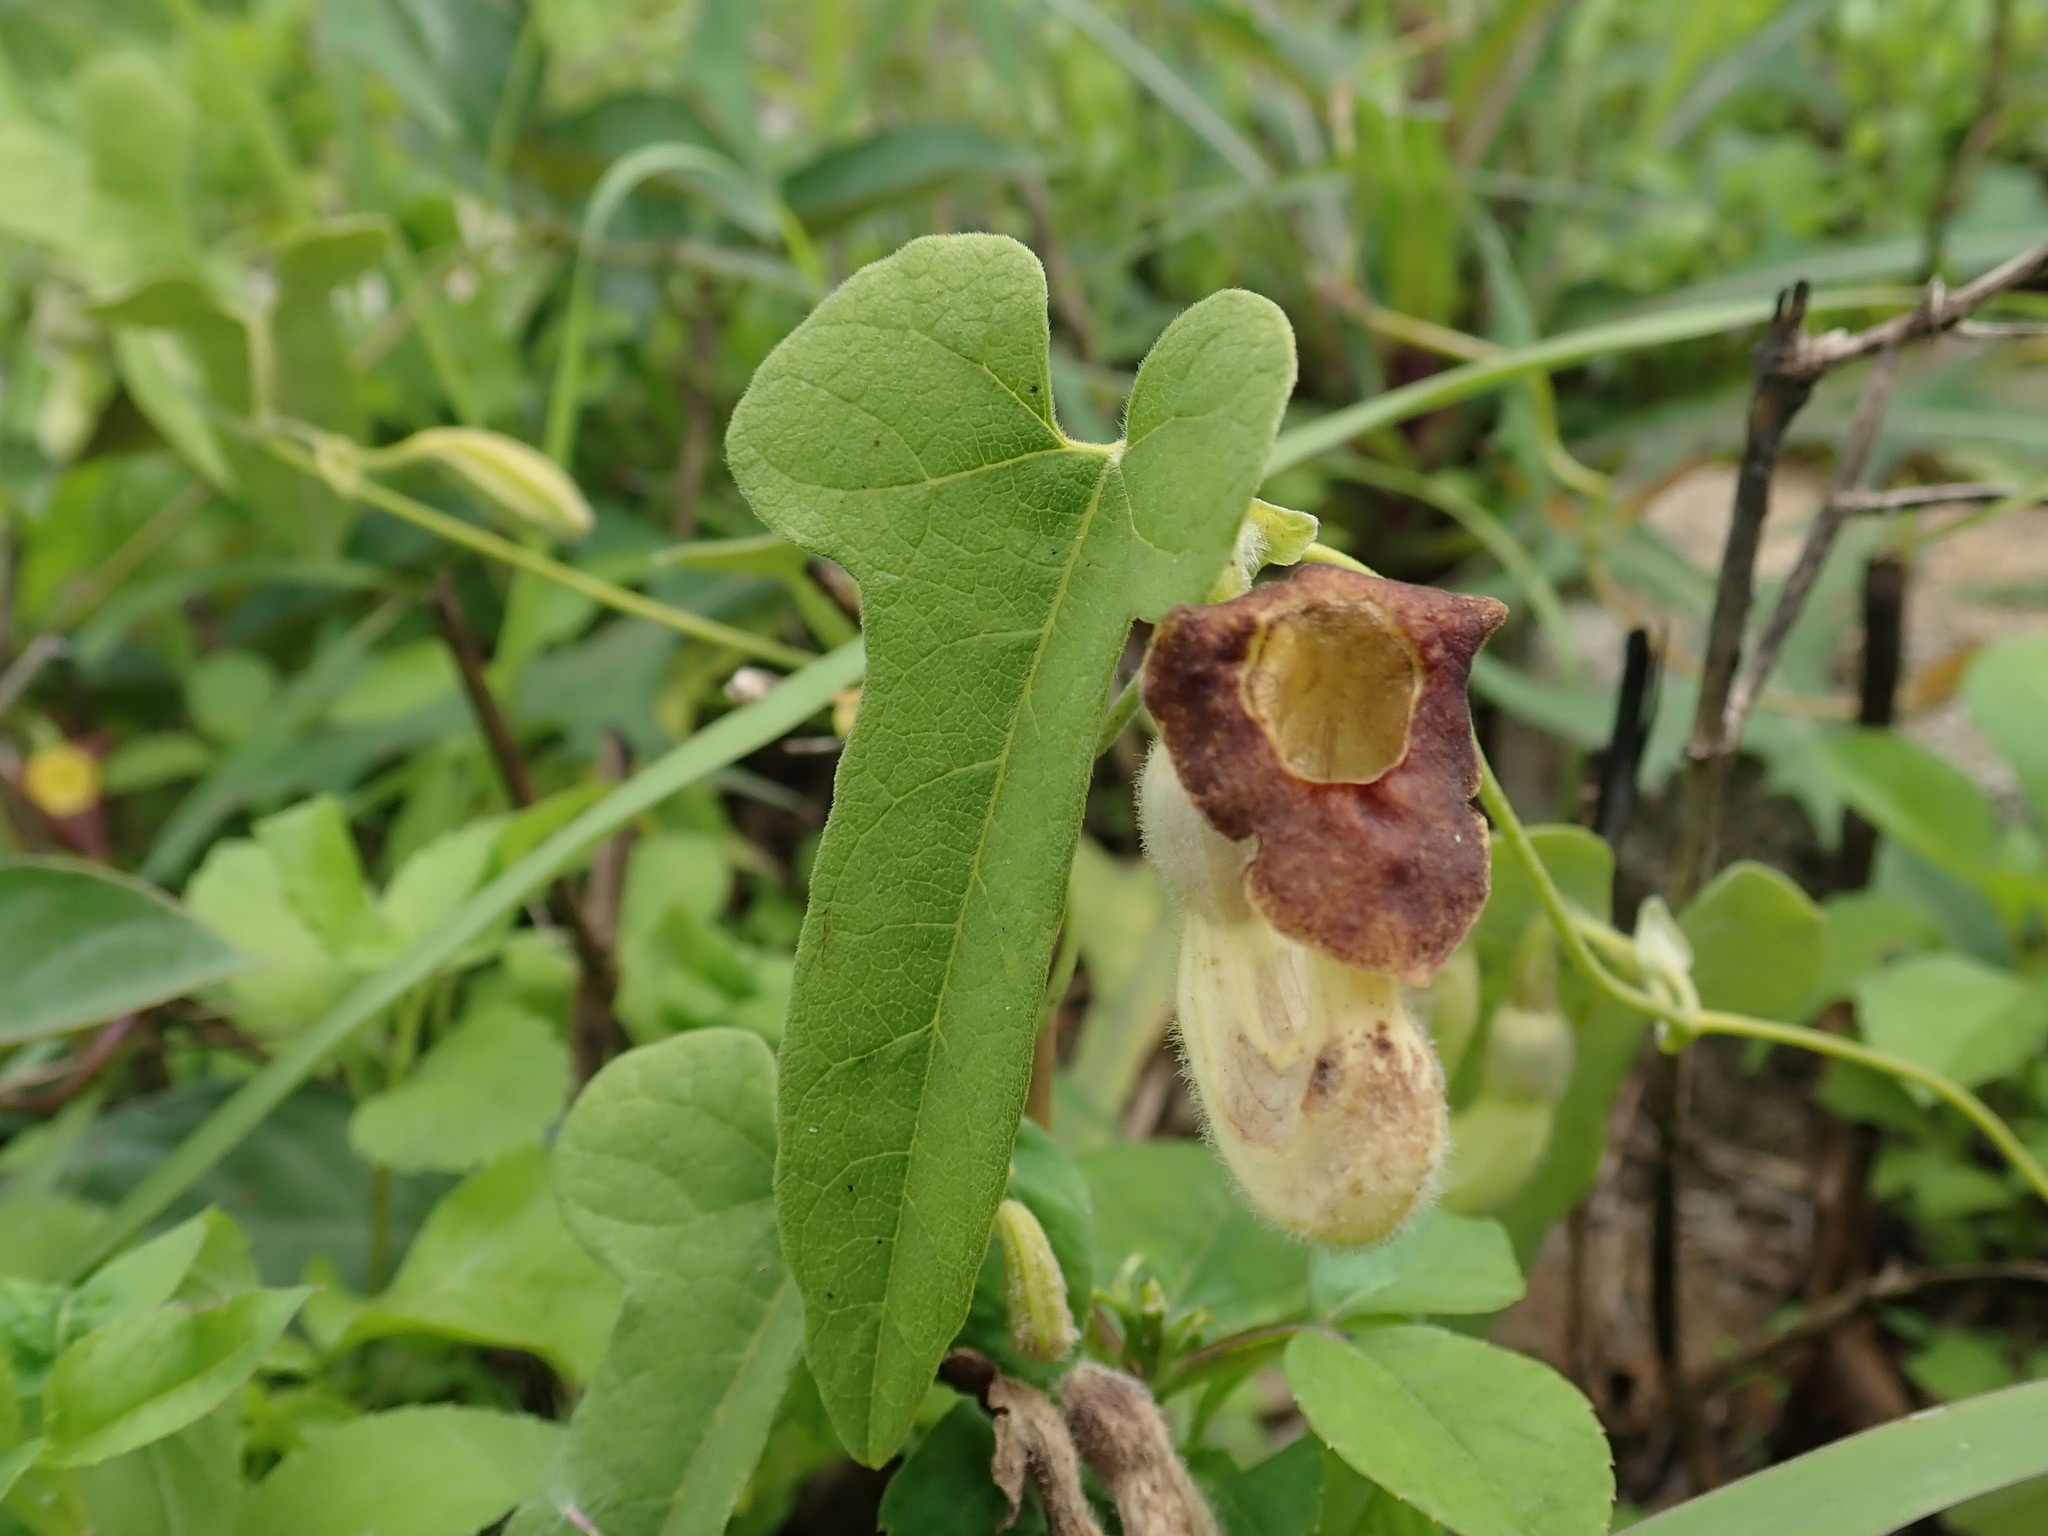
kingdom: Plantae
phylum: Tracheophyta
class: Magnoliopsida
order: Piperales
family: Aristolochiaceae
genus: Isotrema
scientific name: Isotrema shimadae
